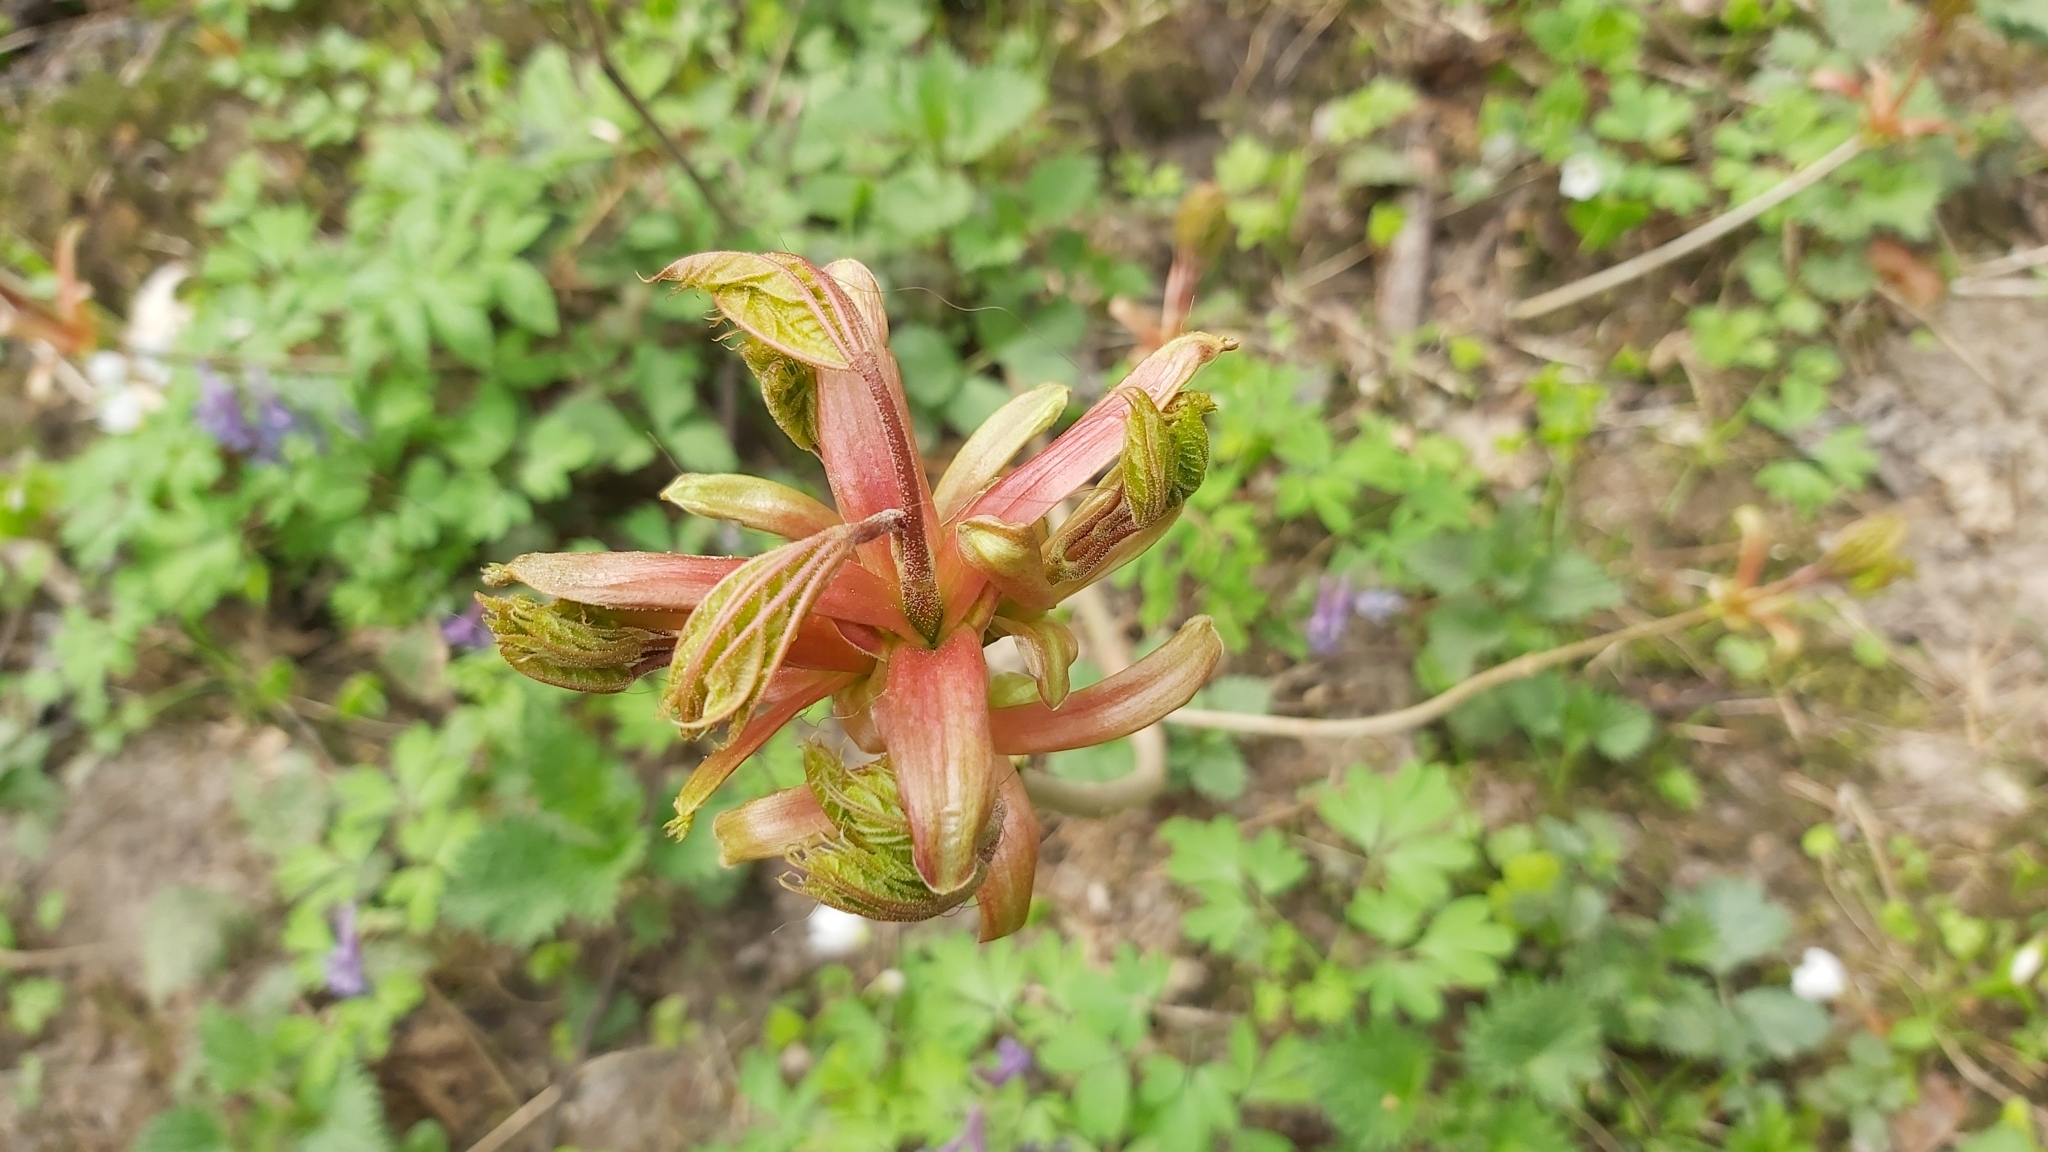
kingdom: Plantae
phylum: Tracheophyta
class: Magnoliopsida
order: Sapindales
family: Sapindaceae
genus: Acer
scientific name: Acer platanoides
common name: Norway maple
